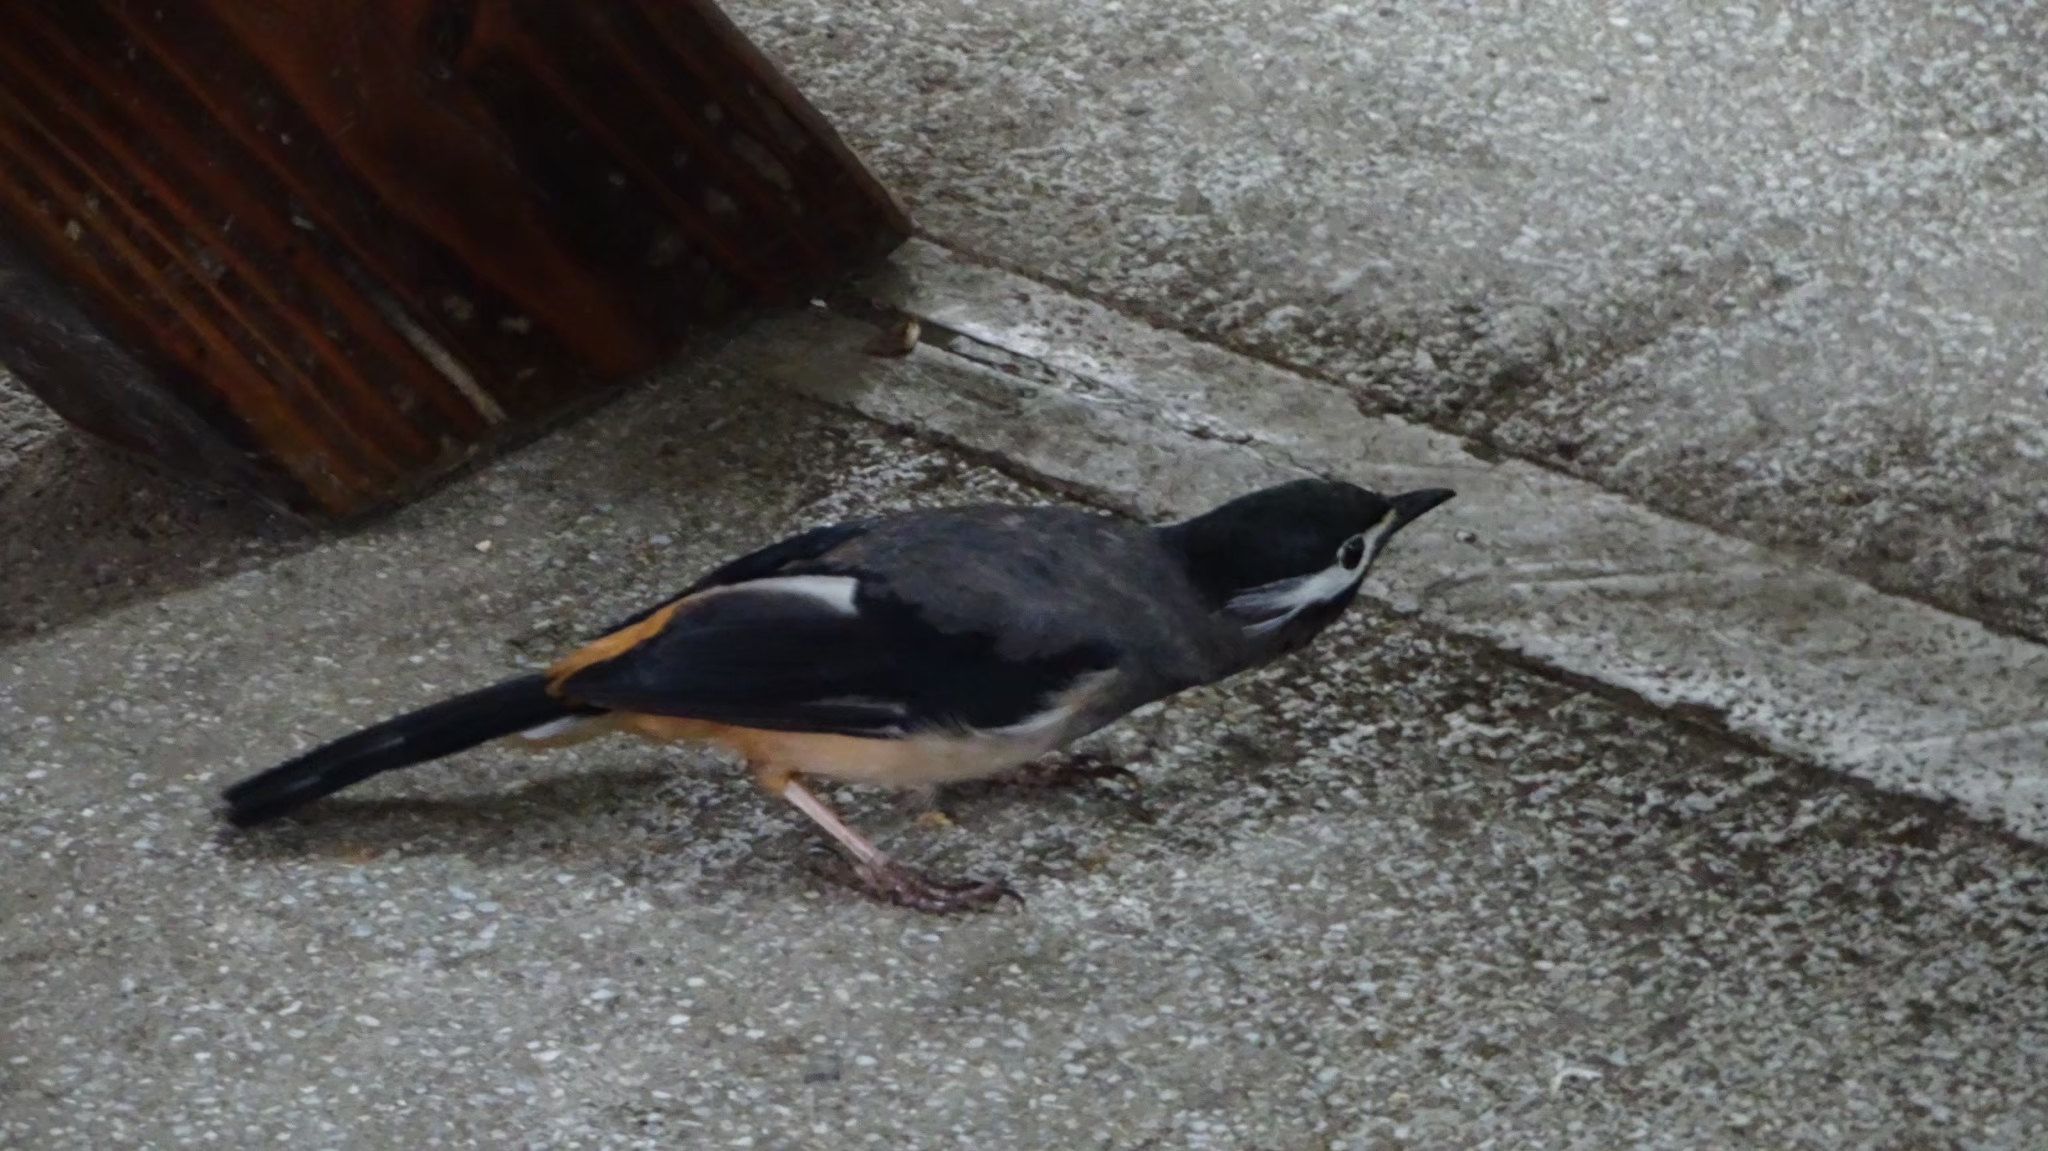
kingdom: Animalia
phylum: Chordata
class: Aves
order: Passeriformes
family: Leiothrichidae
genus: Heterophasia
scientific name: Heterophasia auricularis
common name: White-eared sibia
